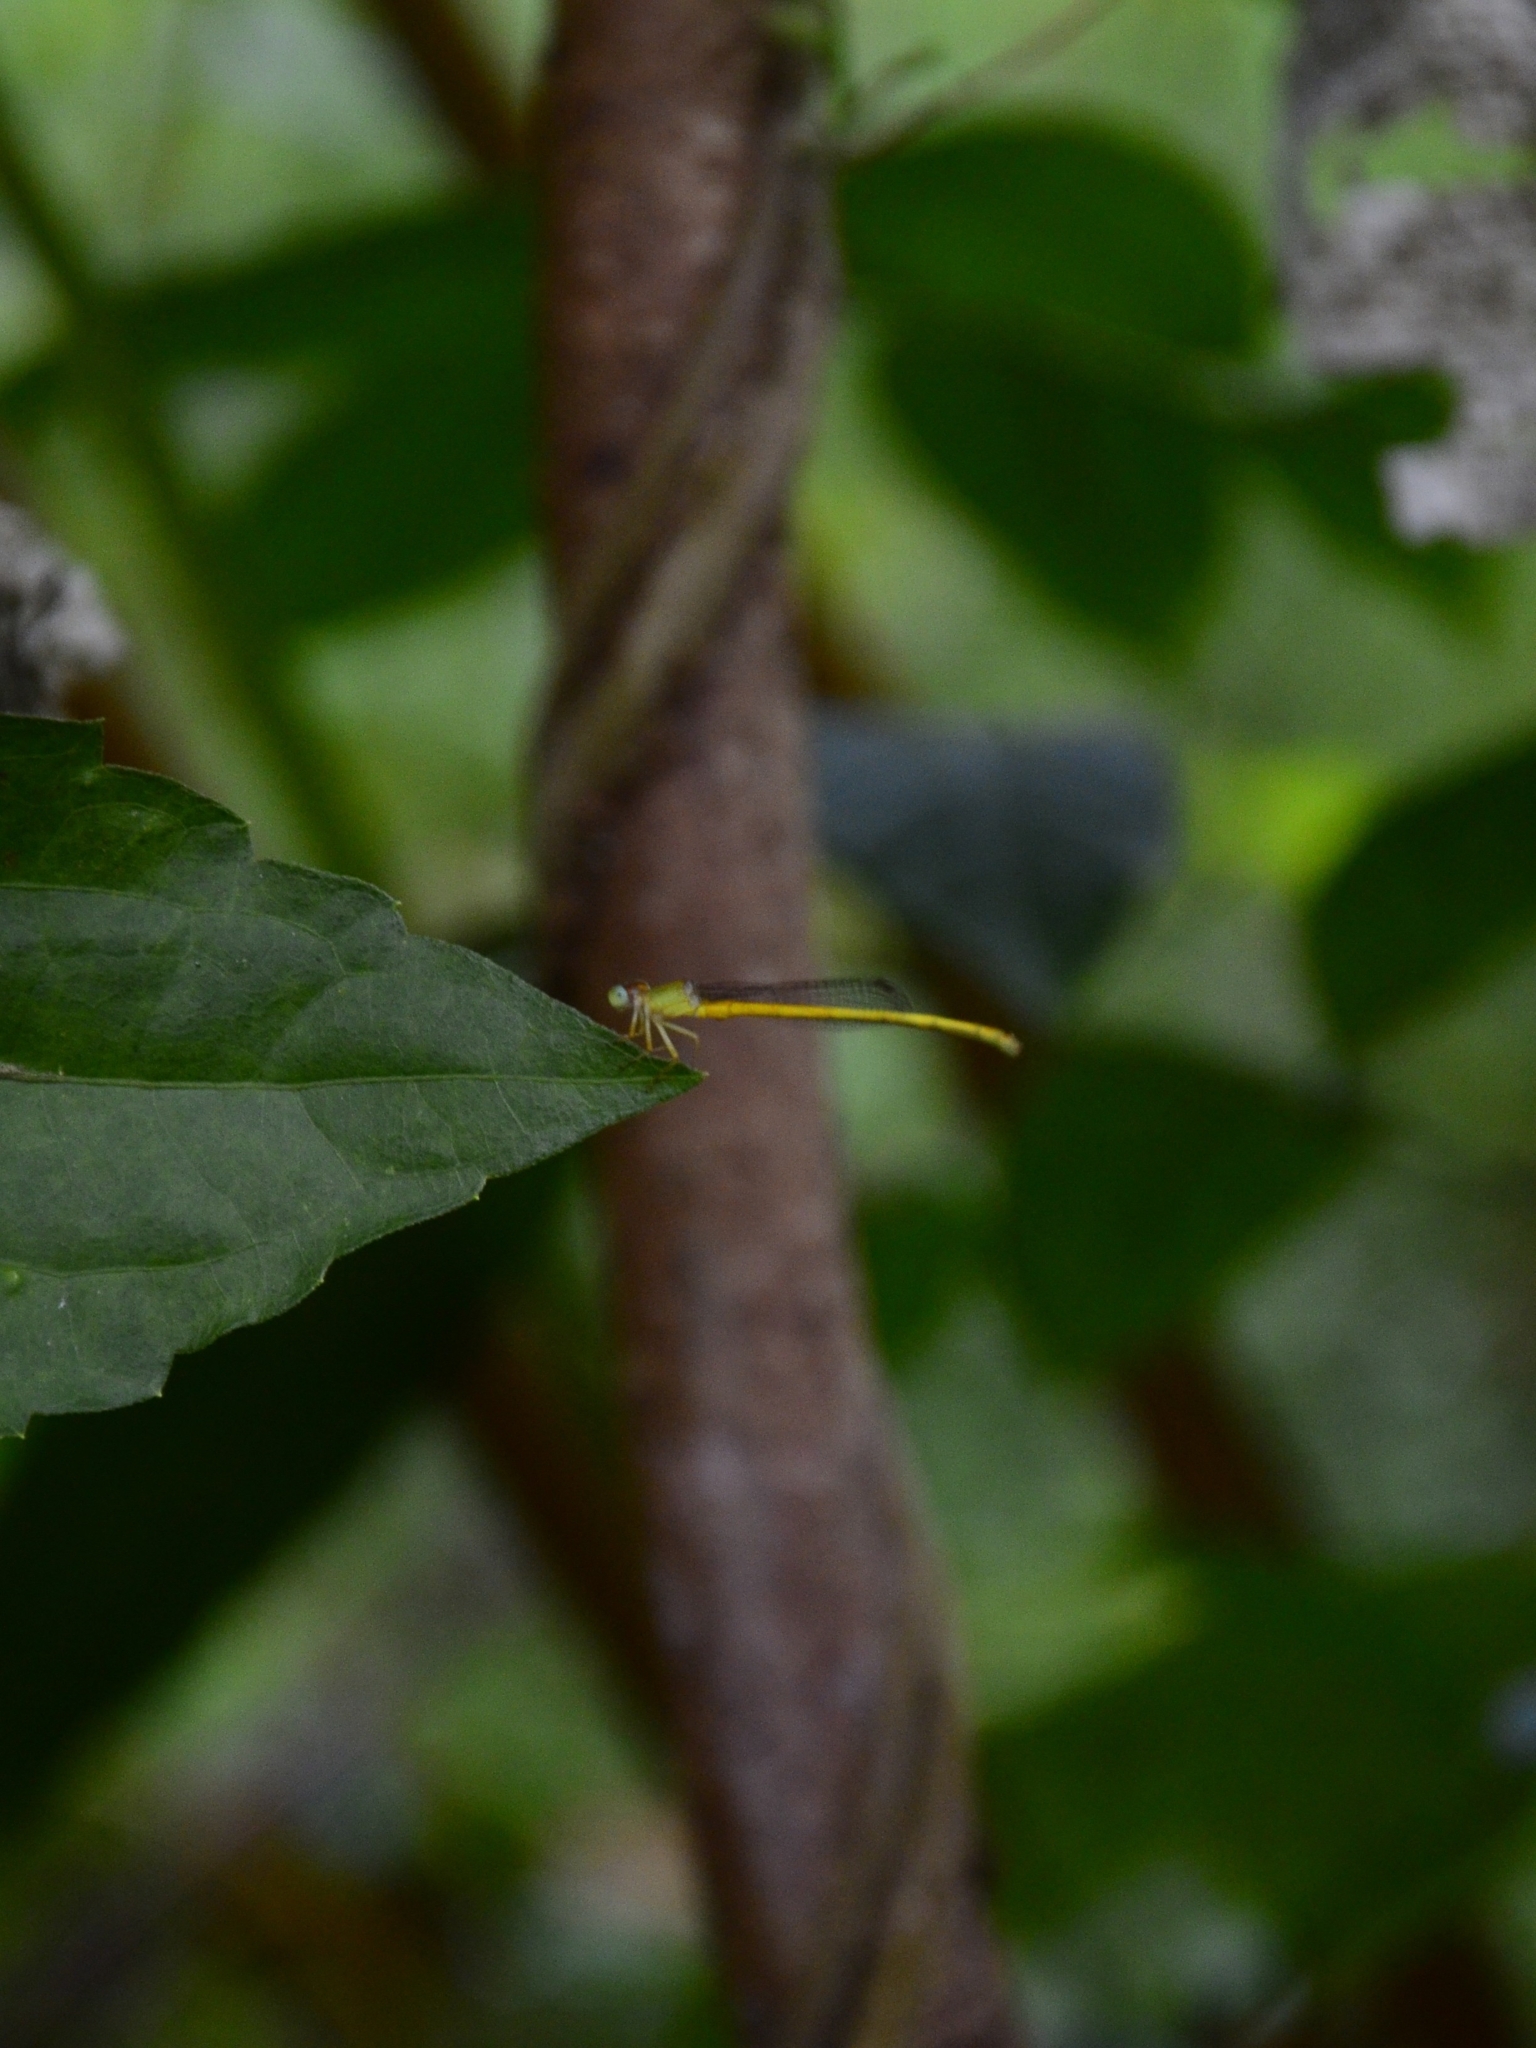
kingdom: Animalia
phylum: Arthropoda
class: Insecta
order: Odonata
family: Coenagrionidae
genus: Ceriagrion
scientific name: Ceriagrion coromandelianum
